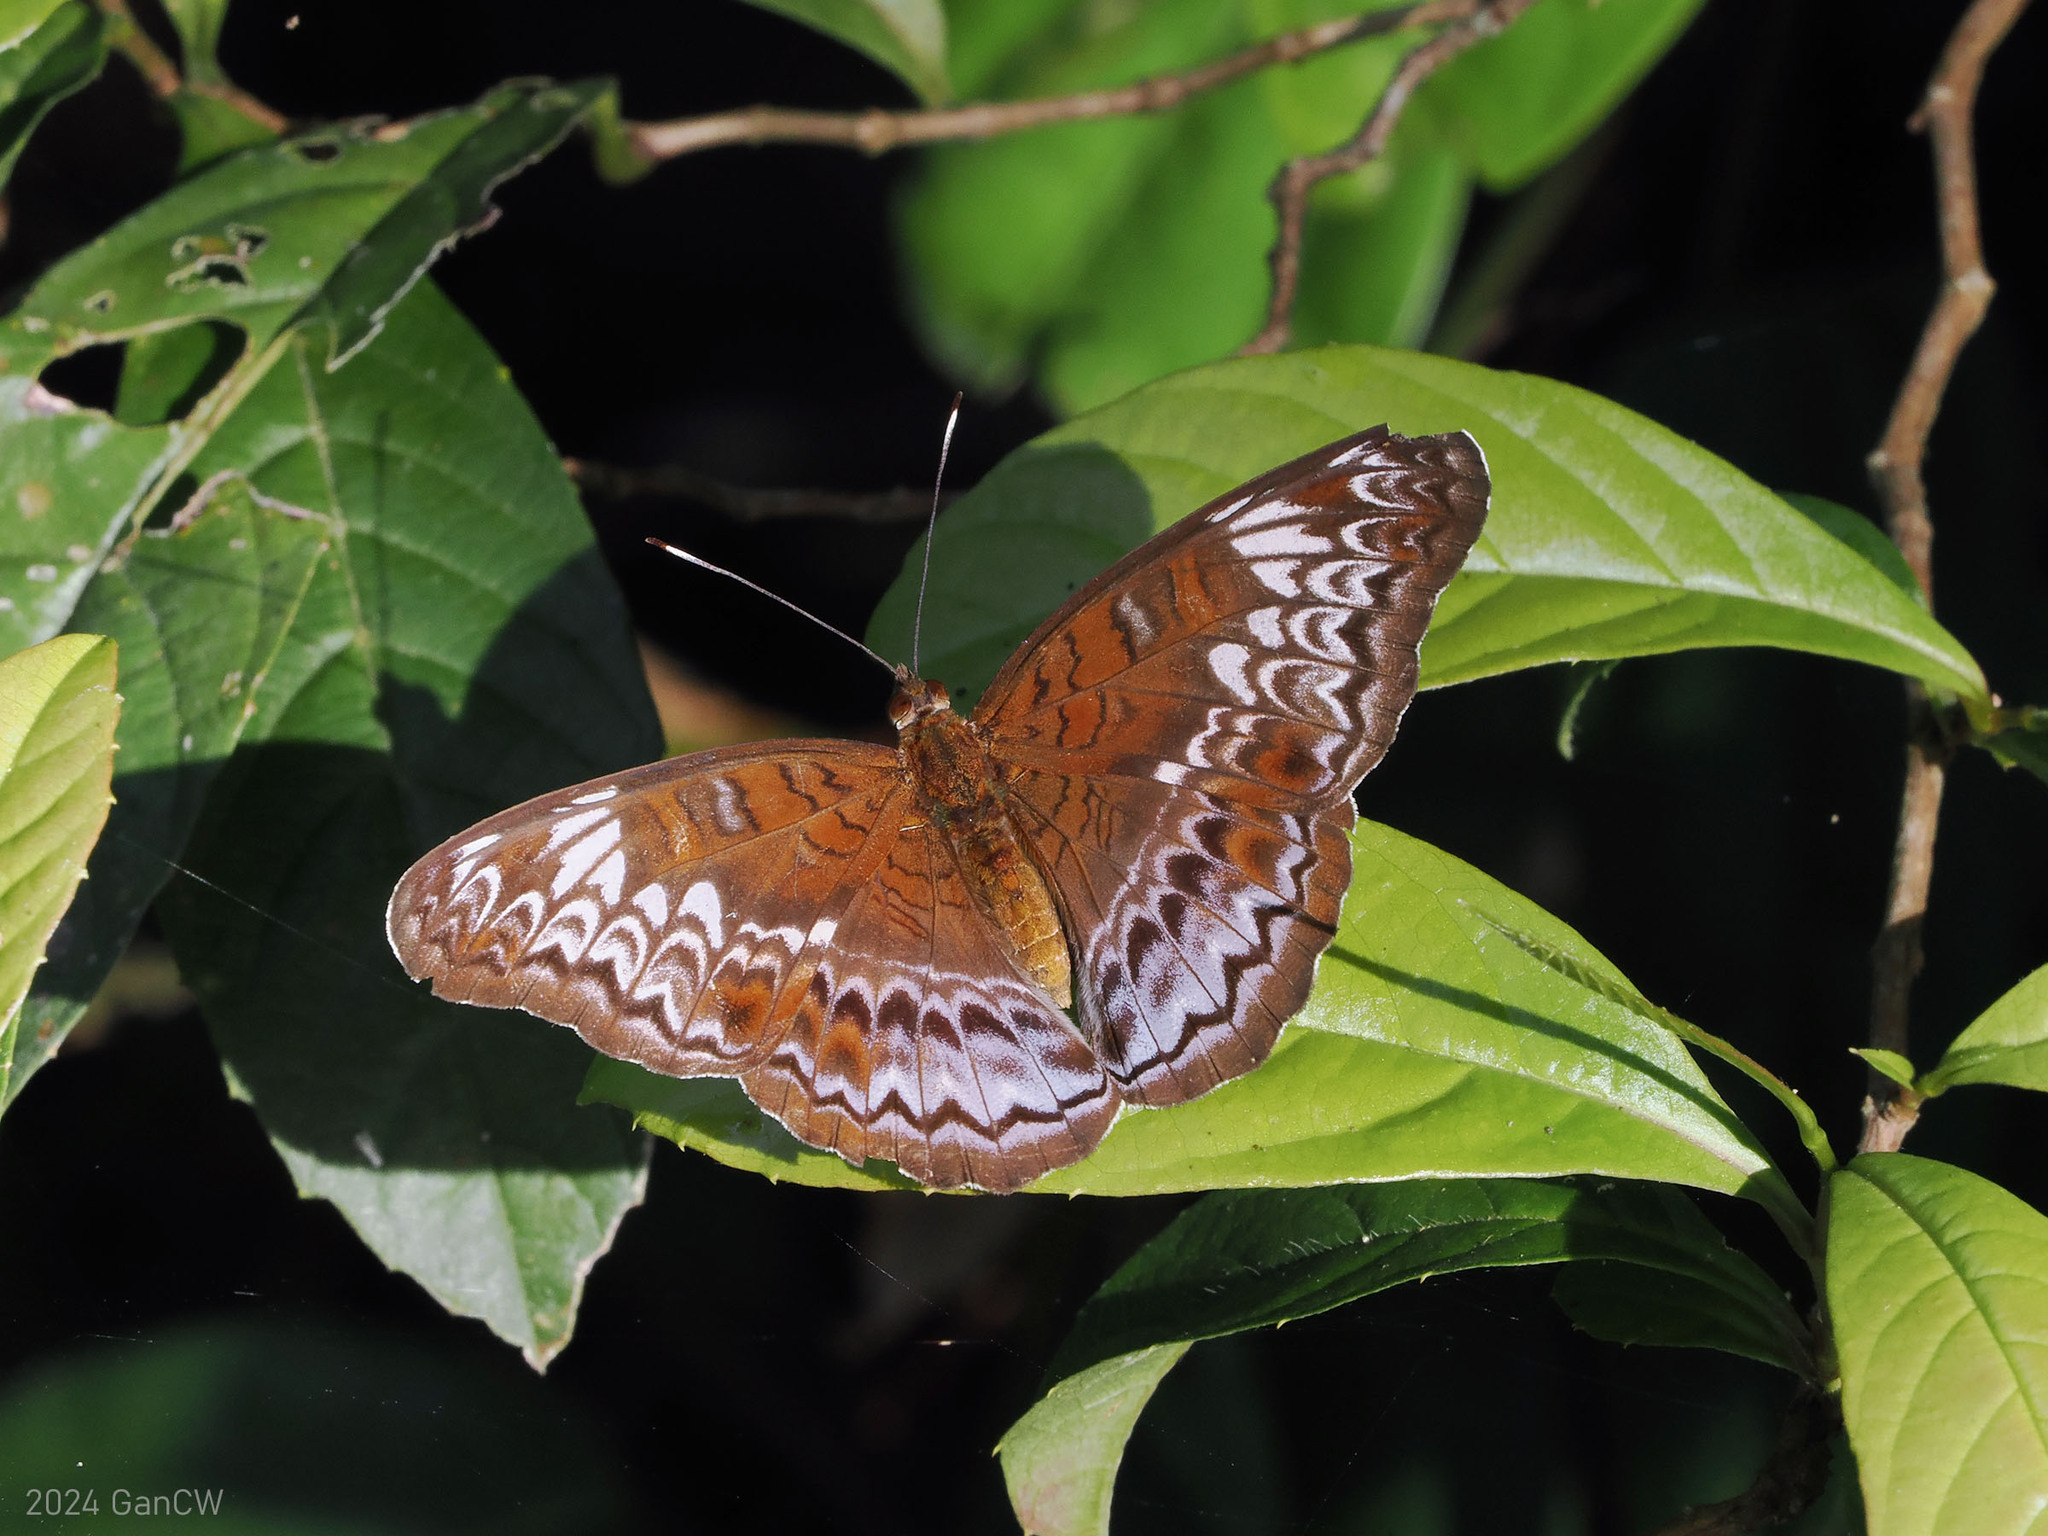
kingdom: Animalia
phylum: Arthropoda
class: Insecta
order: Lepidoptera
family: Nymphalidae
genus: Lebadea
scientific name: Lebadea martha
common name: Knight
